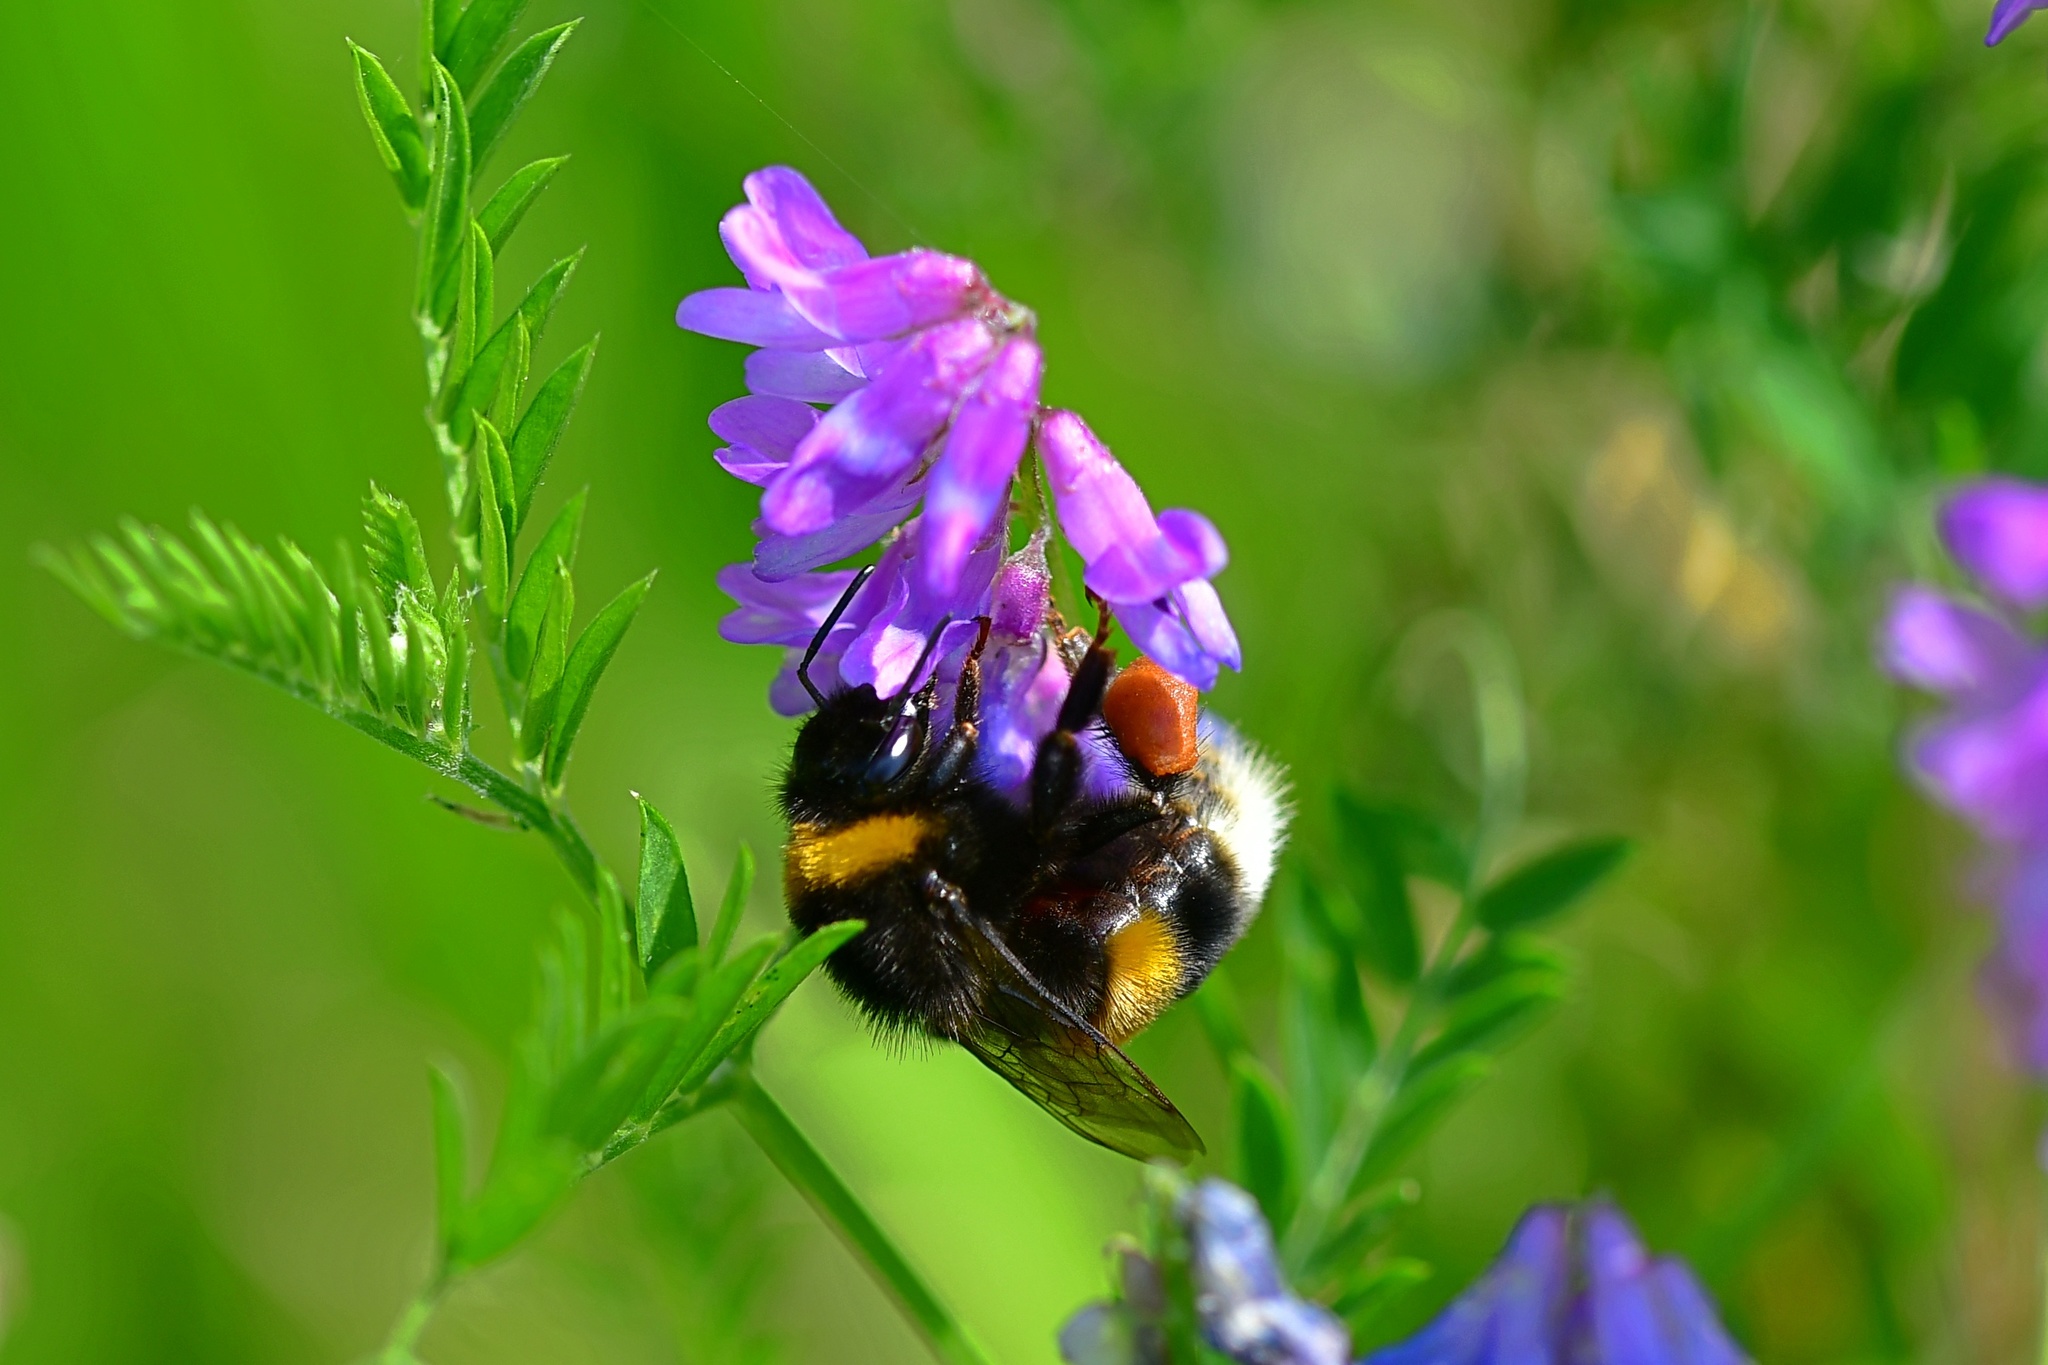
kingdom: Animalia
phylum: Arthropoda
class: Insecta
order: Hymenoptera
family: Apidae
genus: Bombus
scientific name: Bombus
